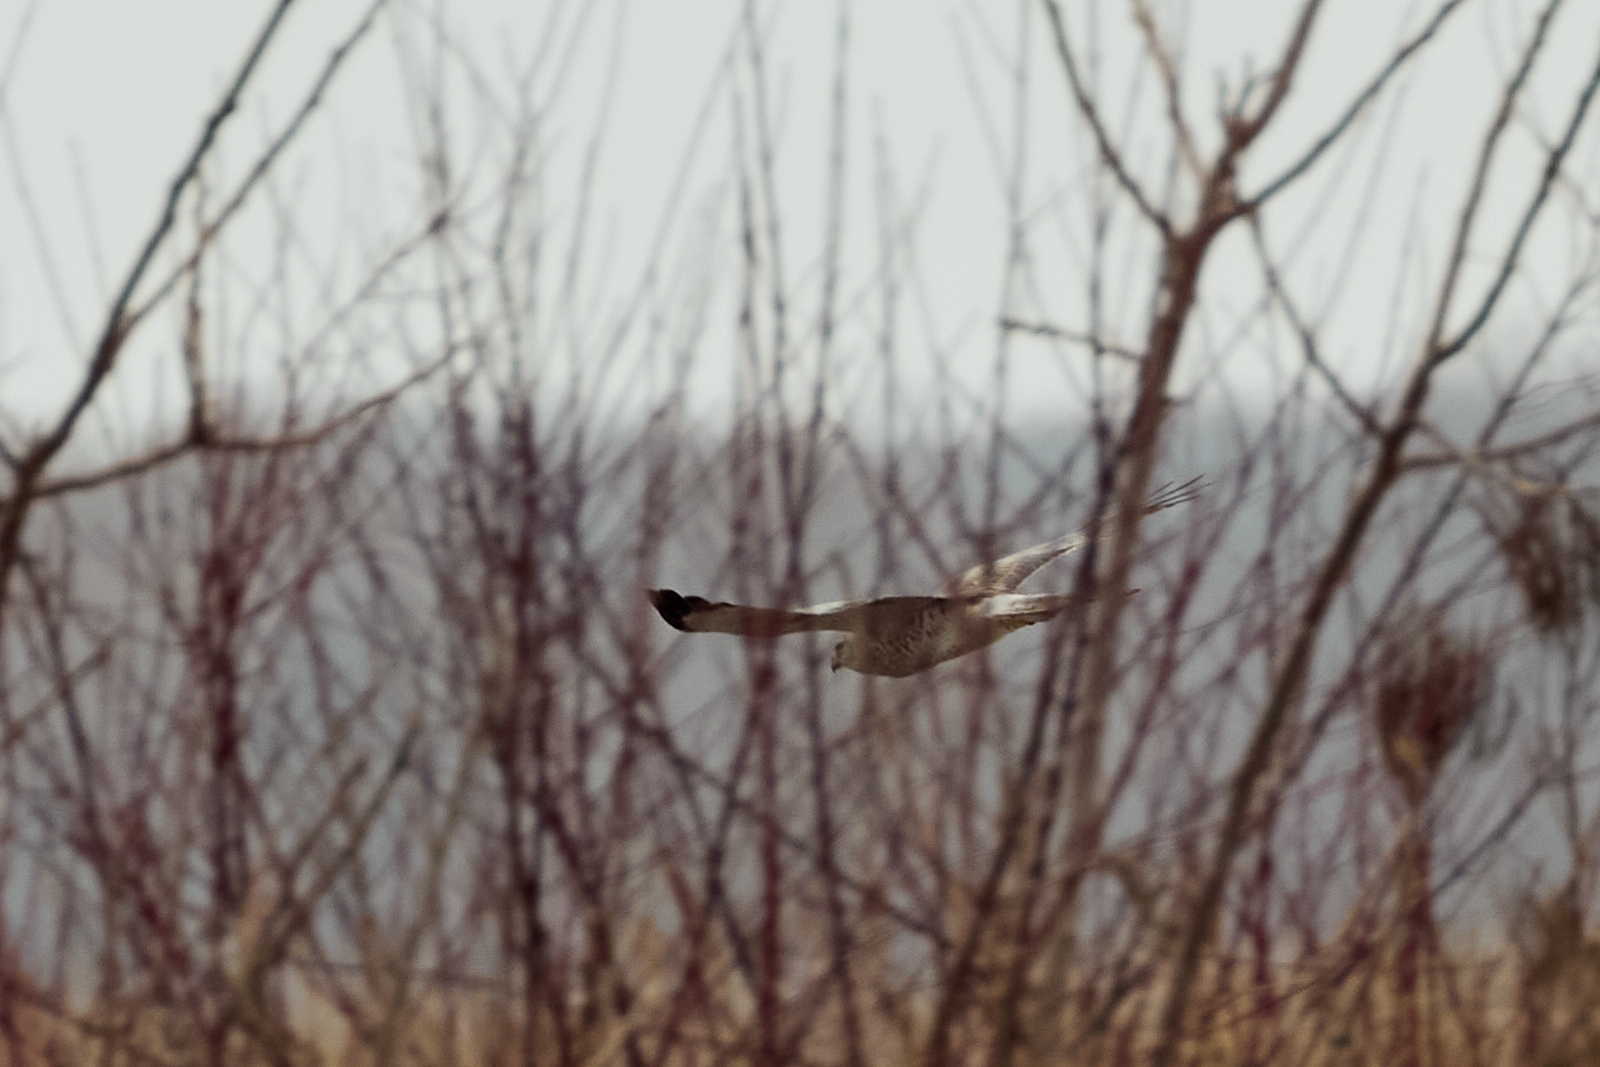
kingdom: Animalia
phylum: Chordata
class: Aves
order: Accipitriformes
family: Accipitridae
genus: Circus
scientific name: Circus cyaneus
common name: Hen harrier
